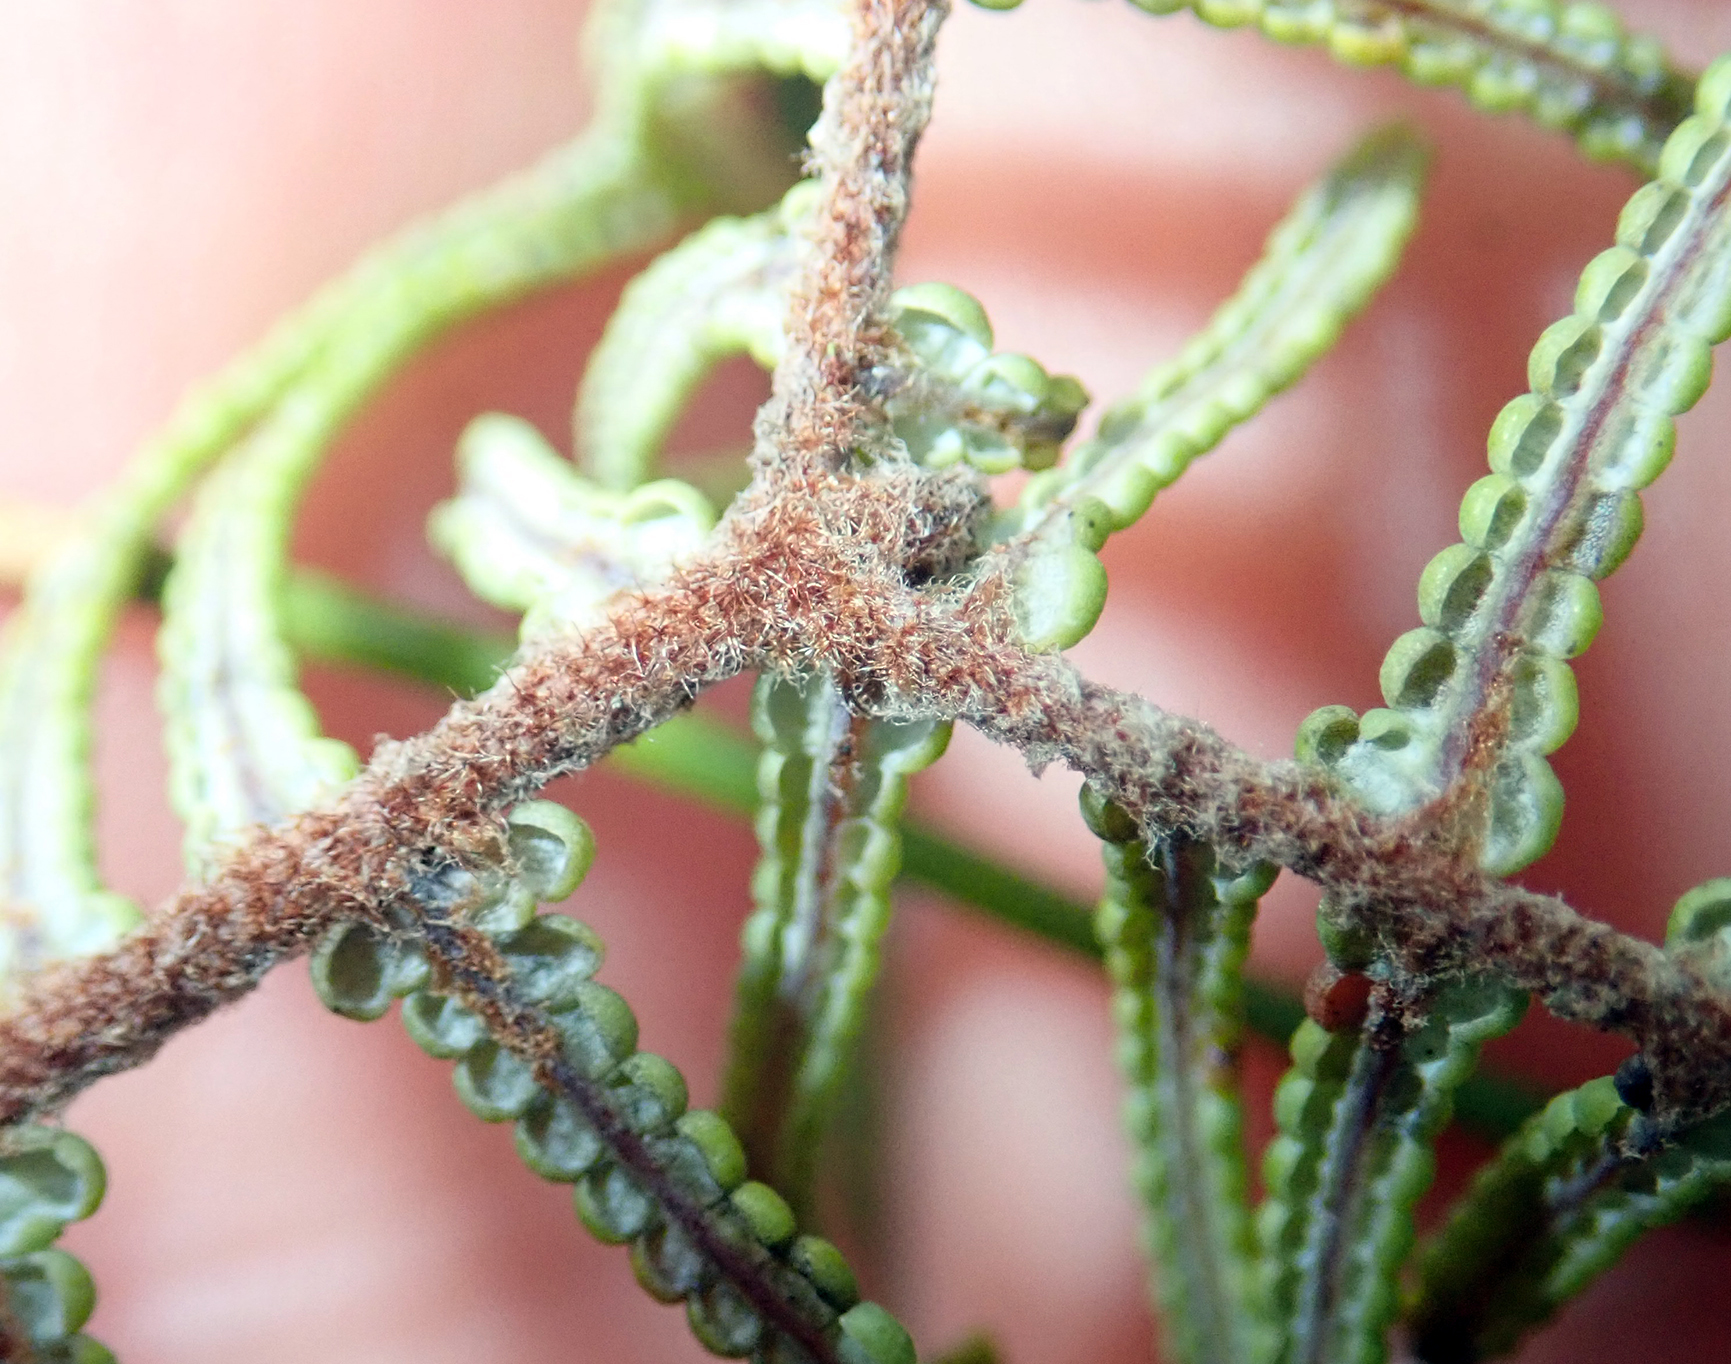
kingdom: Plantae
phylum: Tracheophyta
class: Polypodiopsida
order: Gleicheniales
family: Gleicheniaceae
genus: Gleichenia
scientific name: Gleichenia dicarpa
